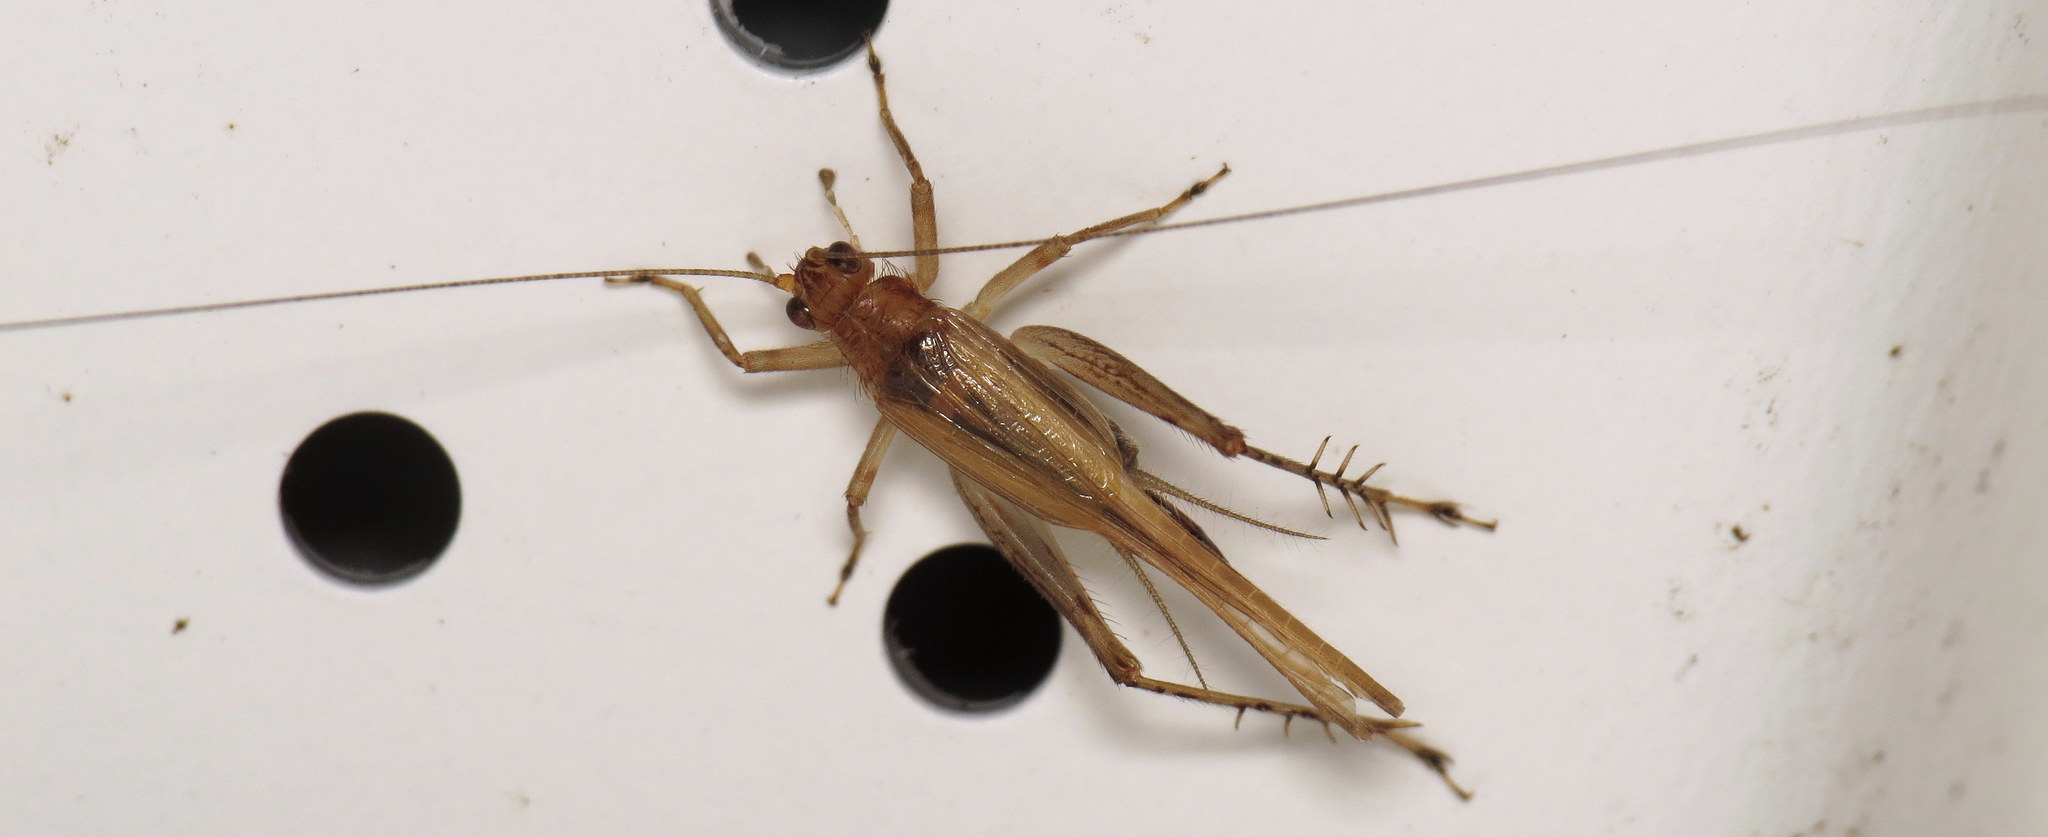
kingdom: Animalia
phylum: Arthropoda
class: Insecta
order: Orthoptera
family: Trigonidiidae
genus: Anaxipha
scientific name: Anaxipha exigua
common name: Say's bush cricket
